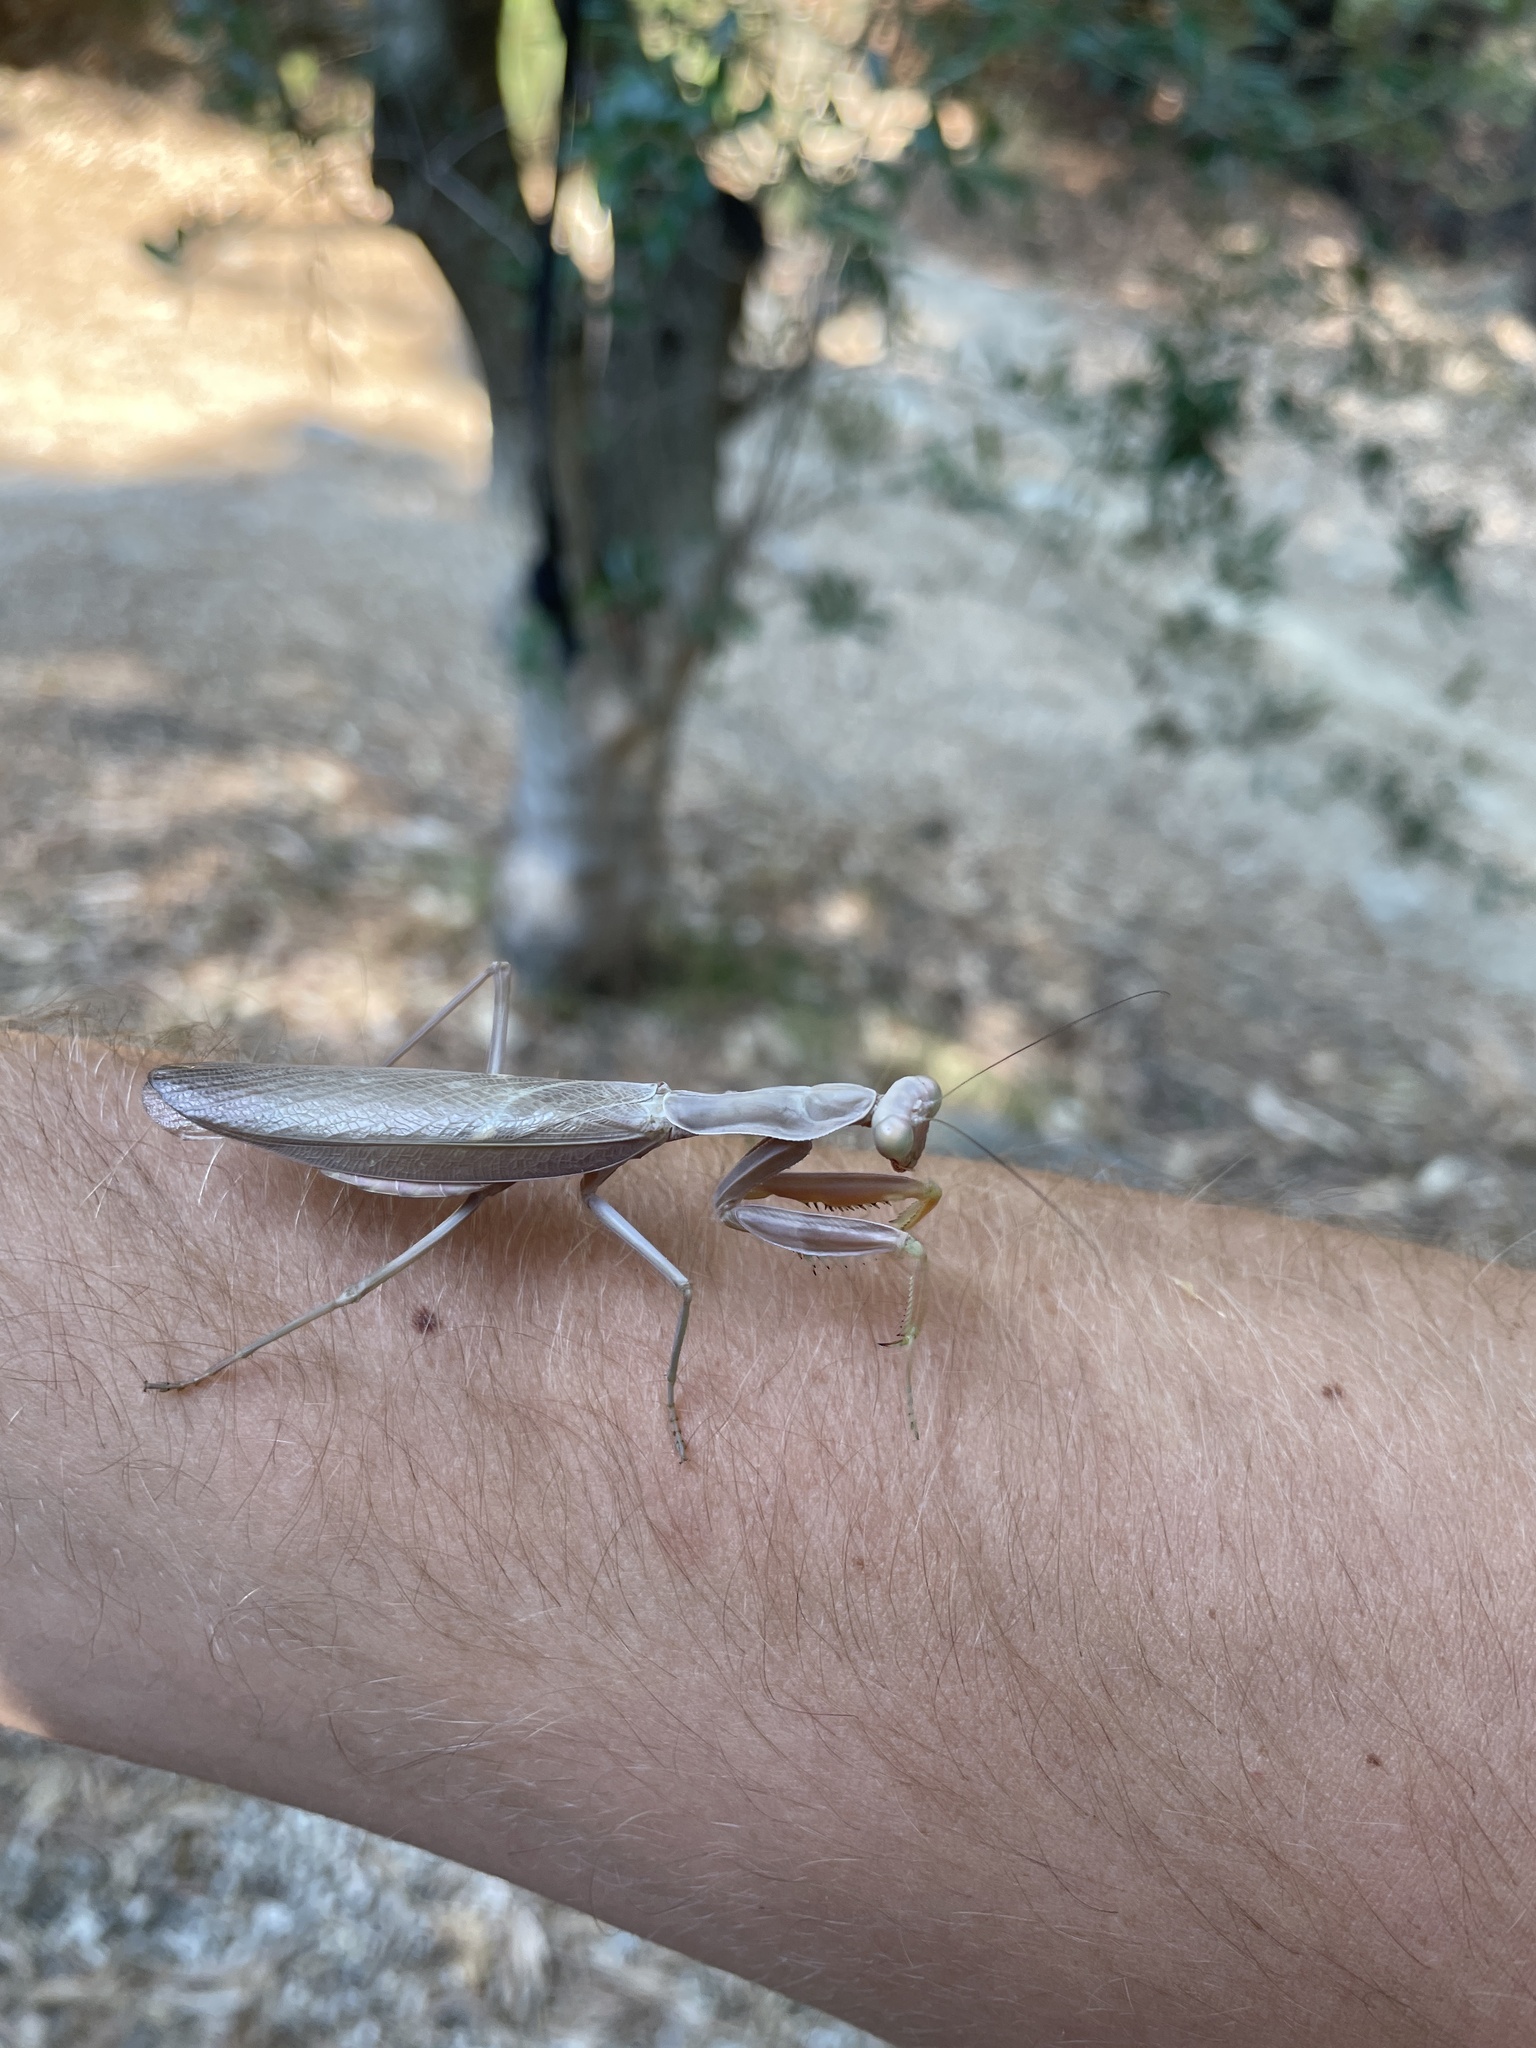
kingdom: Animalia
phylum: Arthropoda
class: Insecta
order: Mantodea
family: Mantidae
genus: Hierodula
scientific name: Hierodula transcaucasica
